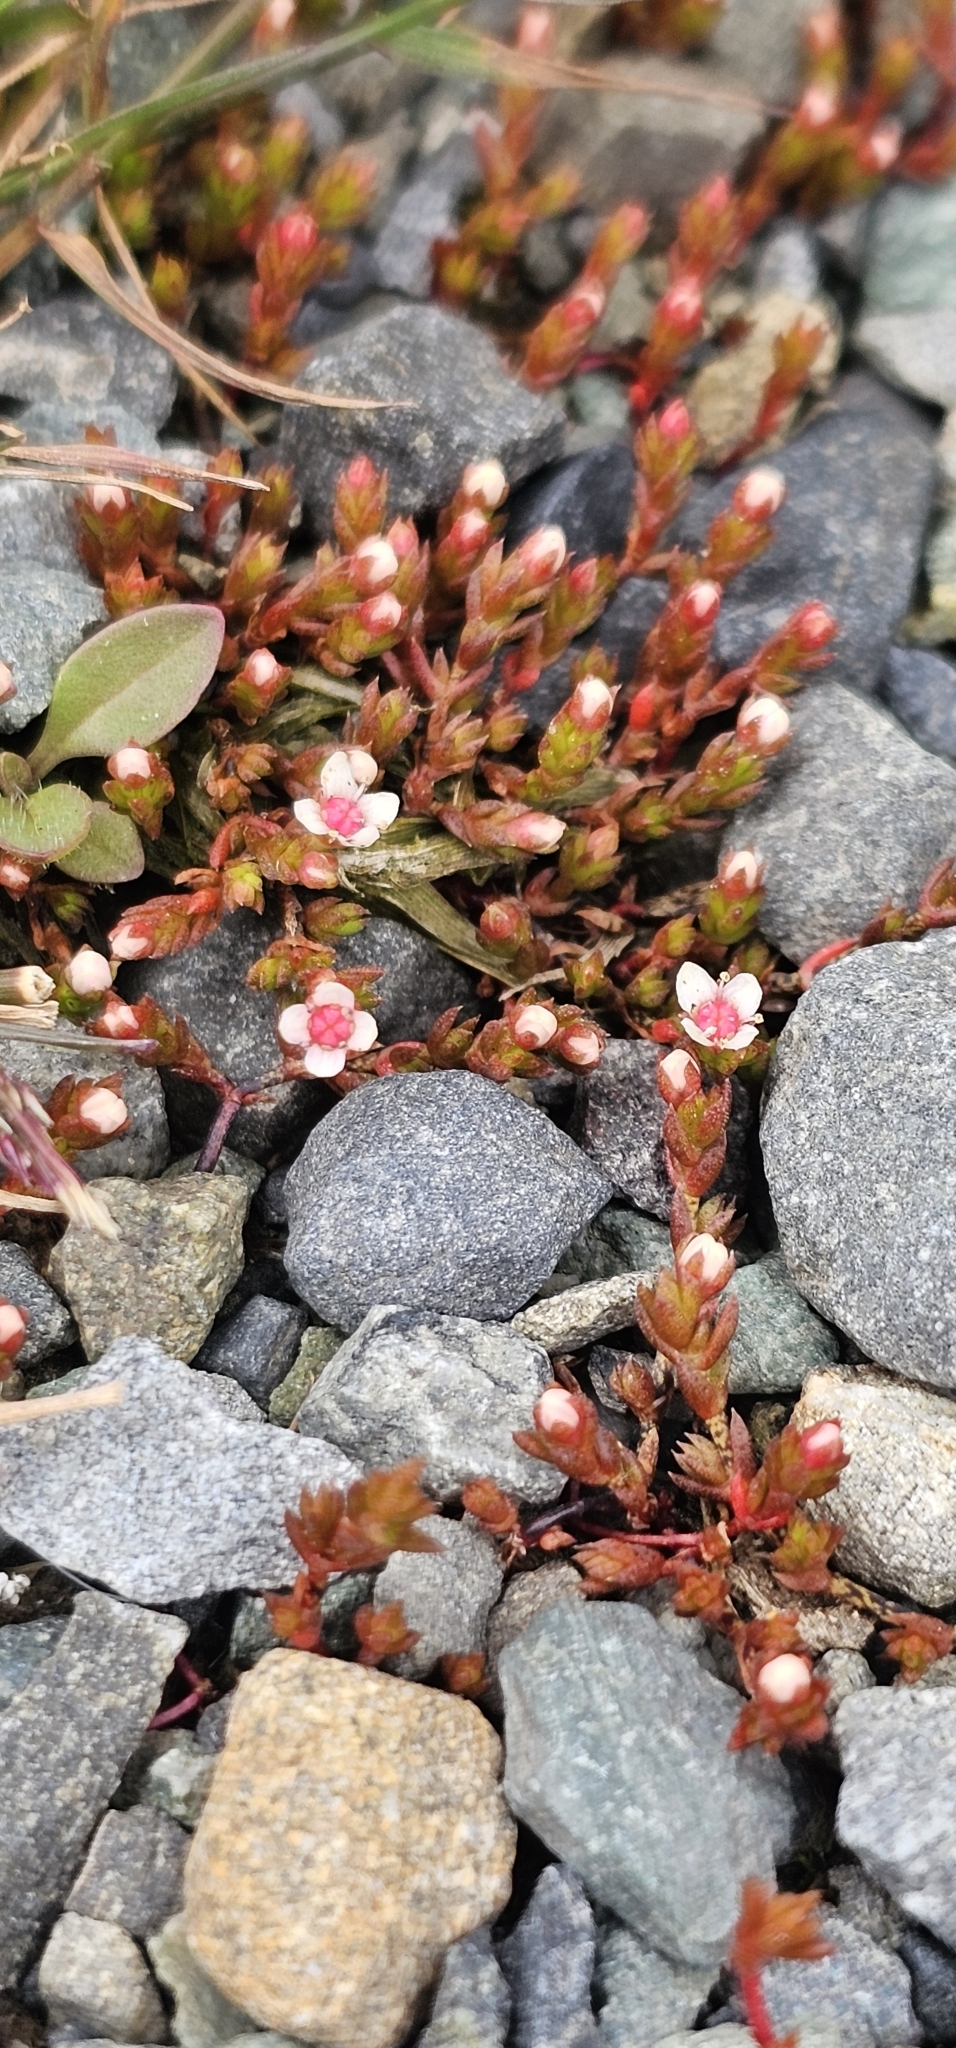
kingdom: Plantae
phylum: Tracheophyta
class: Magnoliopsida
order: Saxifragales
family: Crassulaceae
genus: Crassula
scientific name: Crassula multicaulis
